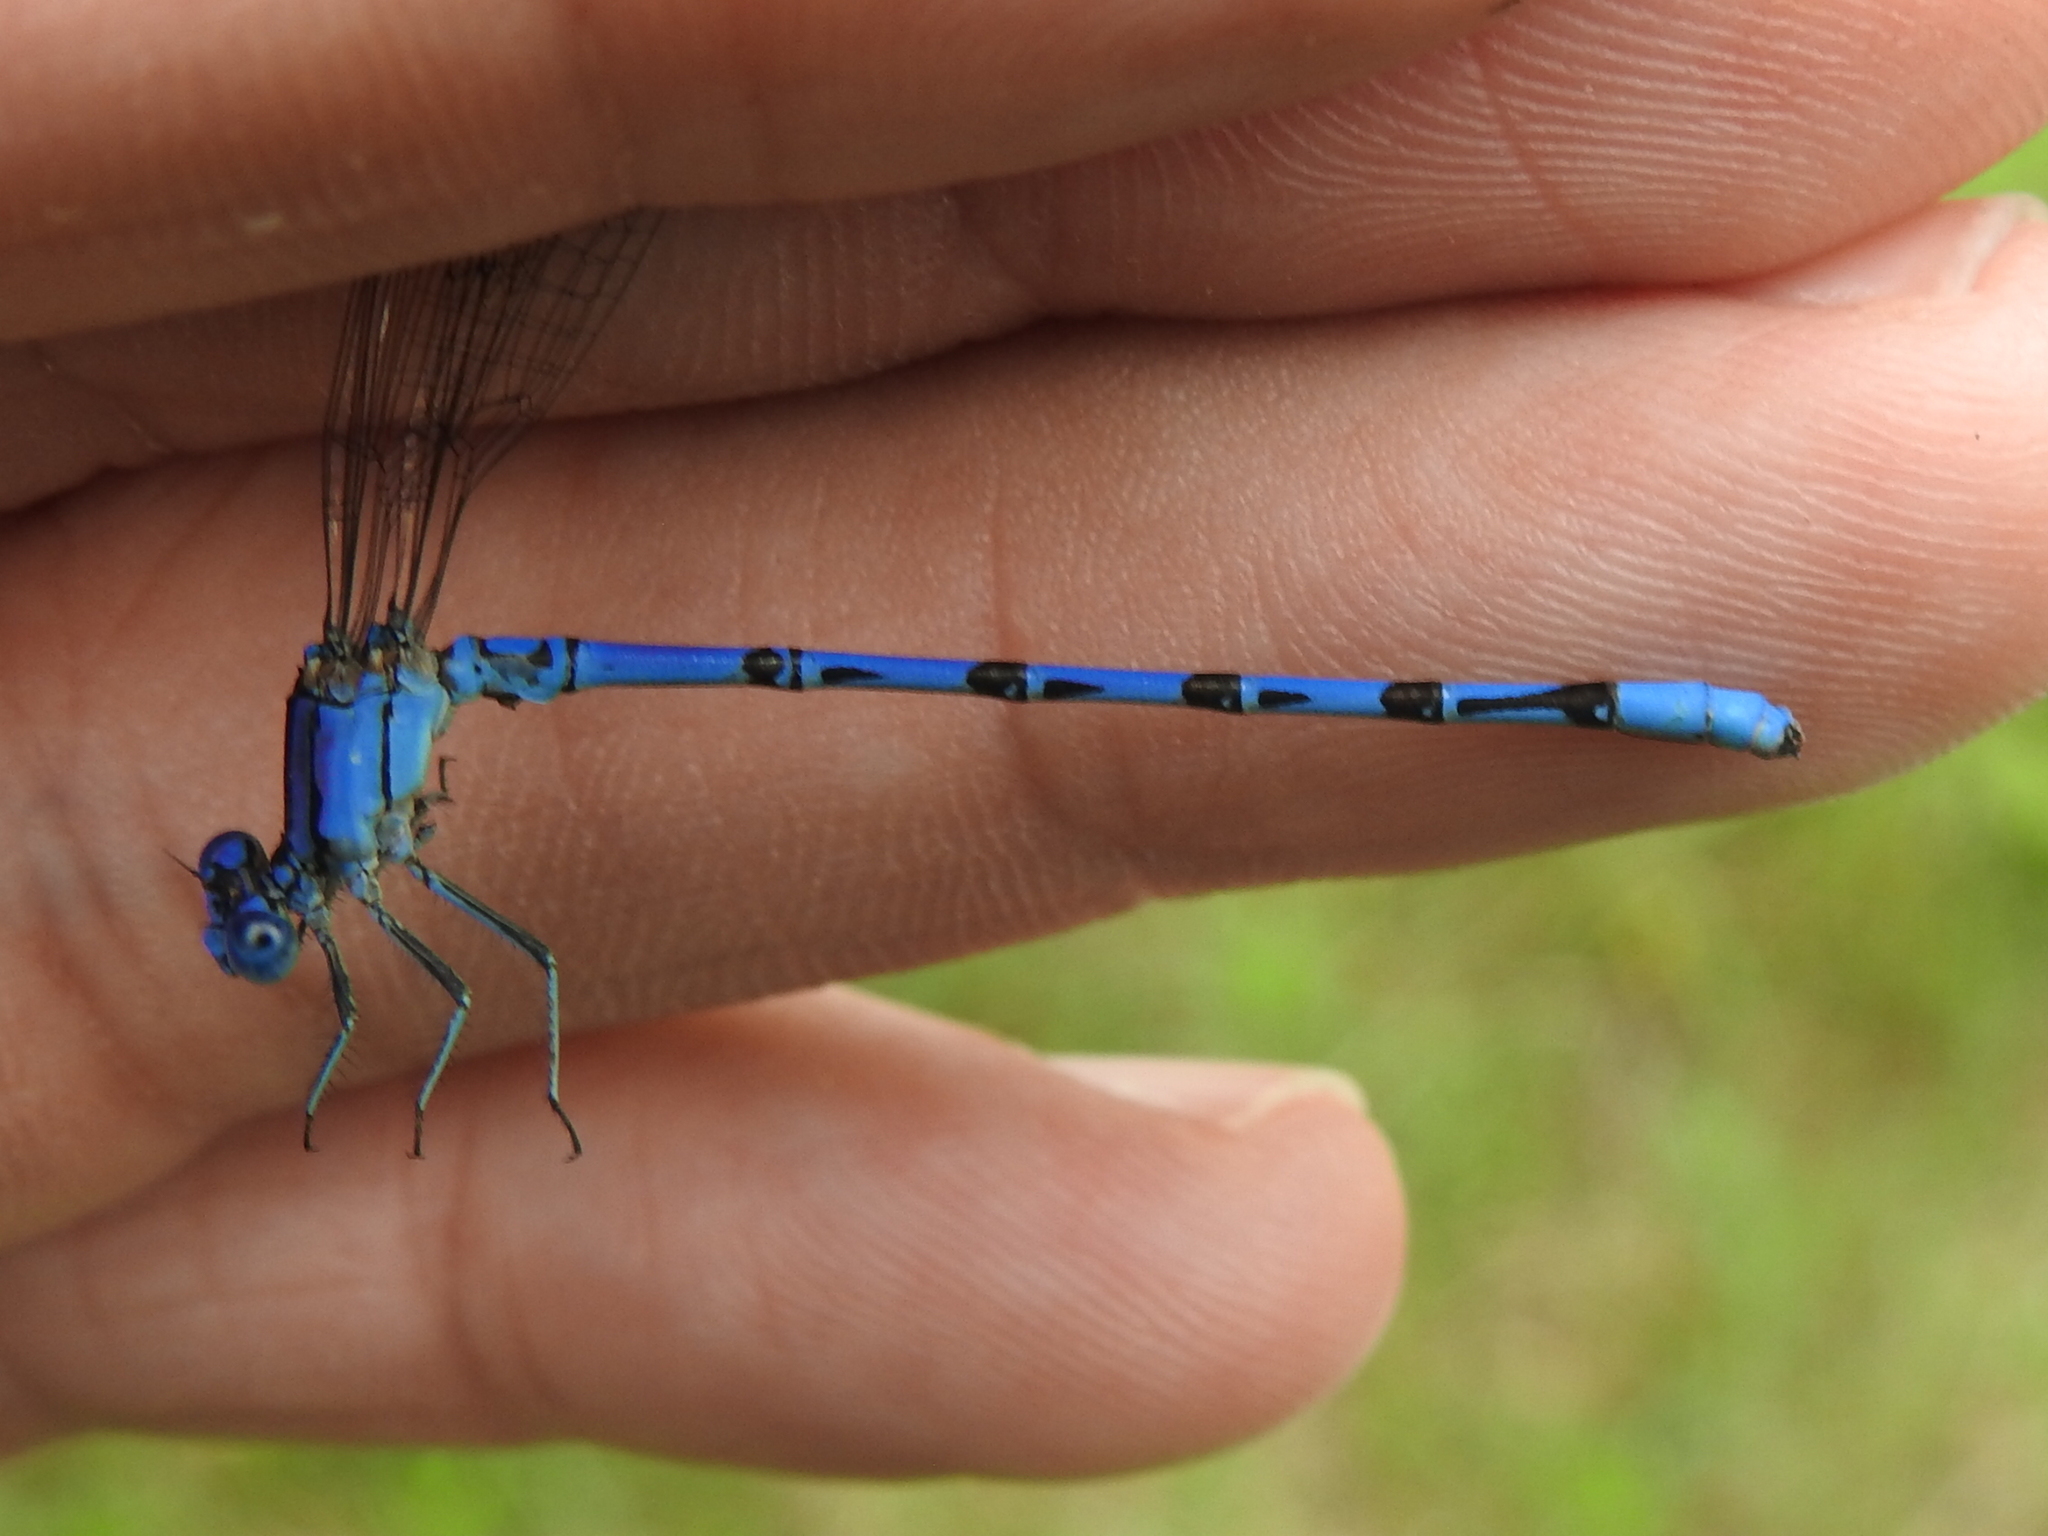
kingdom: Animalia
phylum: Arthropoda
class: Insecta
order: Odonata
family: Coenagrionidae
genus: Argia
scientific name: Argia funebris
